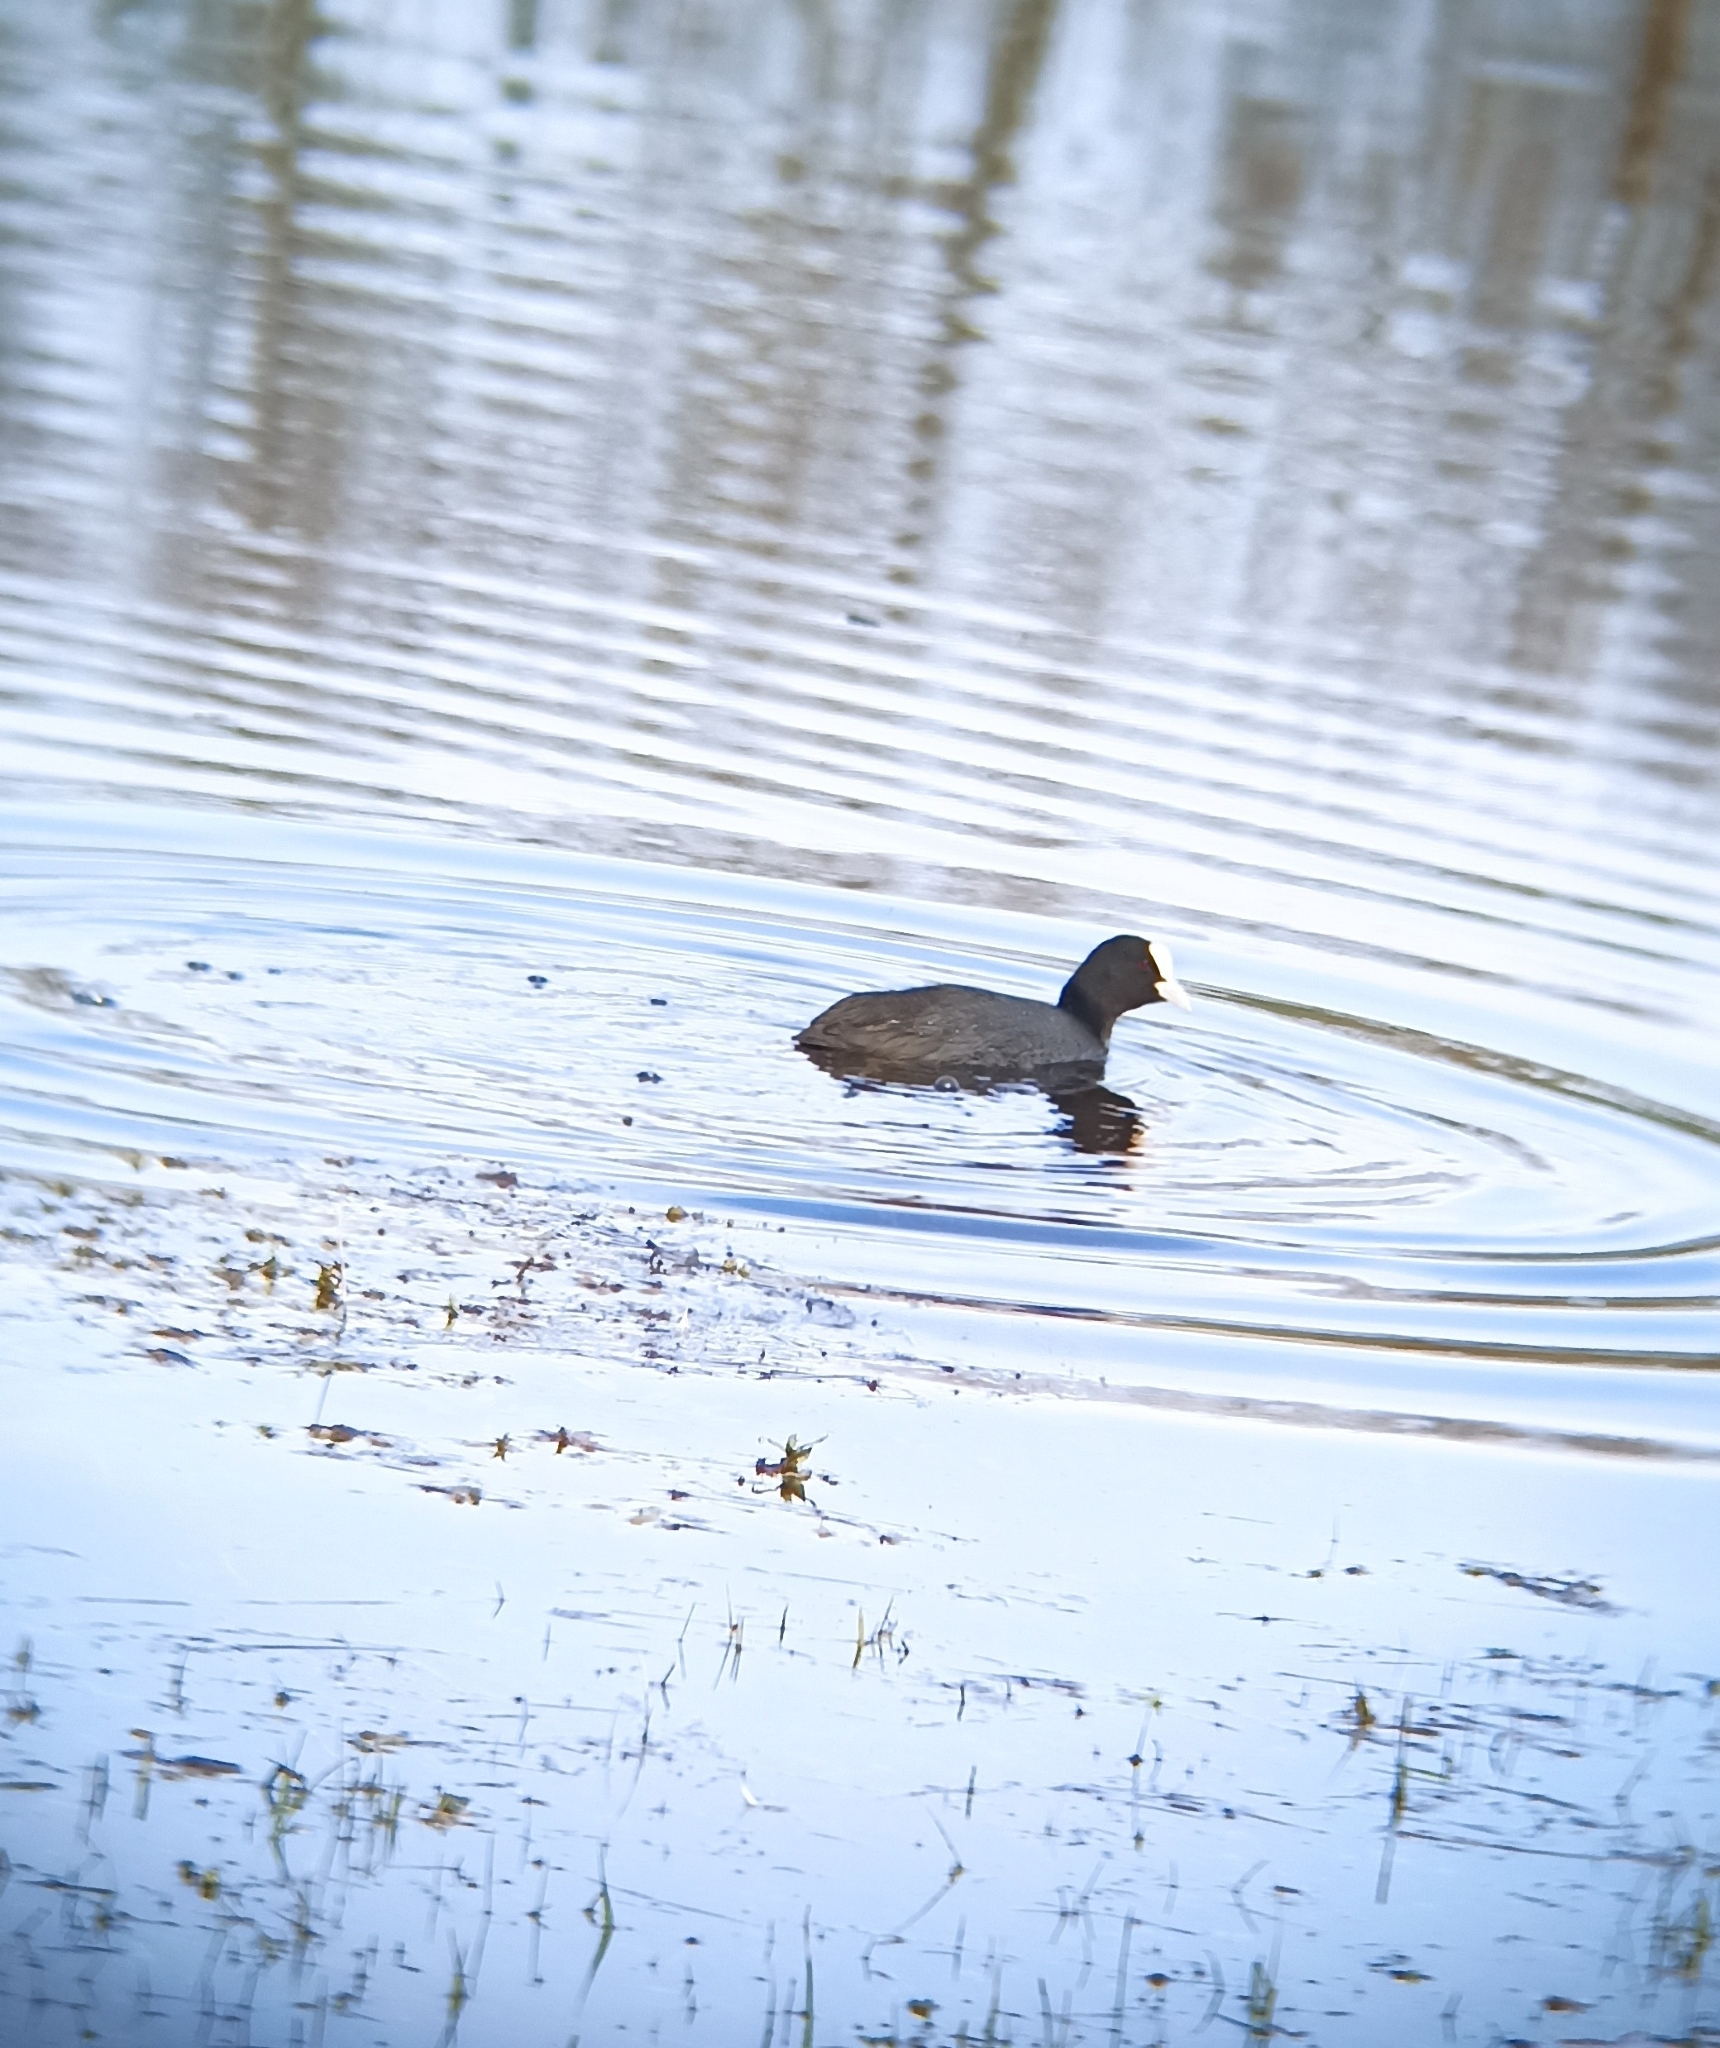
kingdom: Animalia
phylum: Chordata
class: Aves
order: Gruiformes
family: Rallidae
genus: Fulica
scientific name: Fulica atra
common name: Eurasian coot
